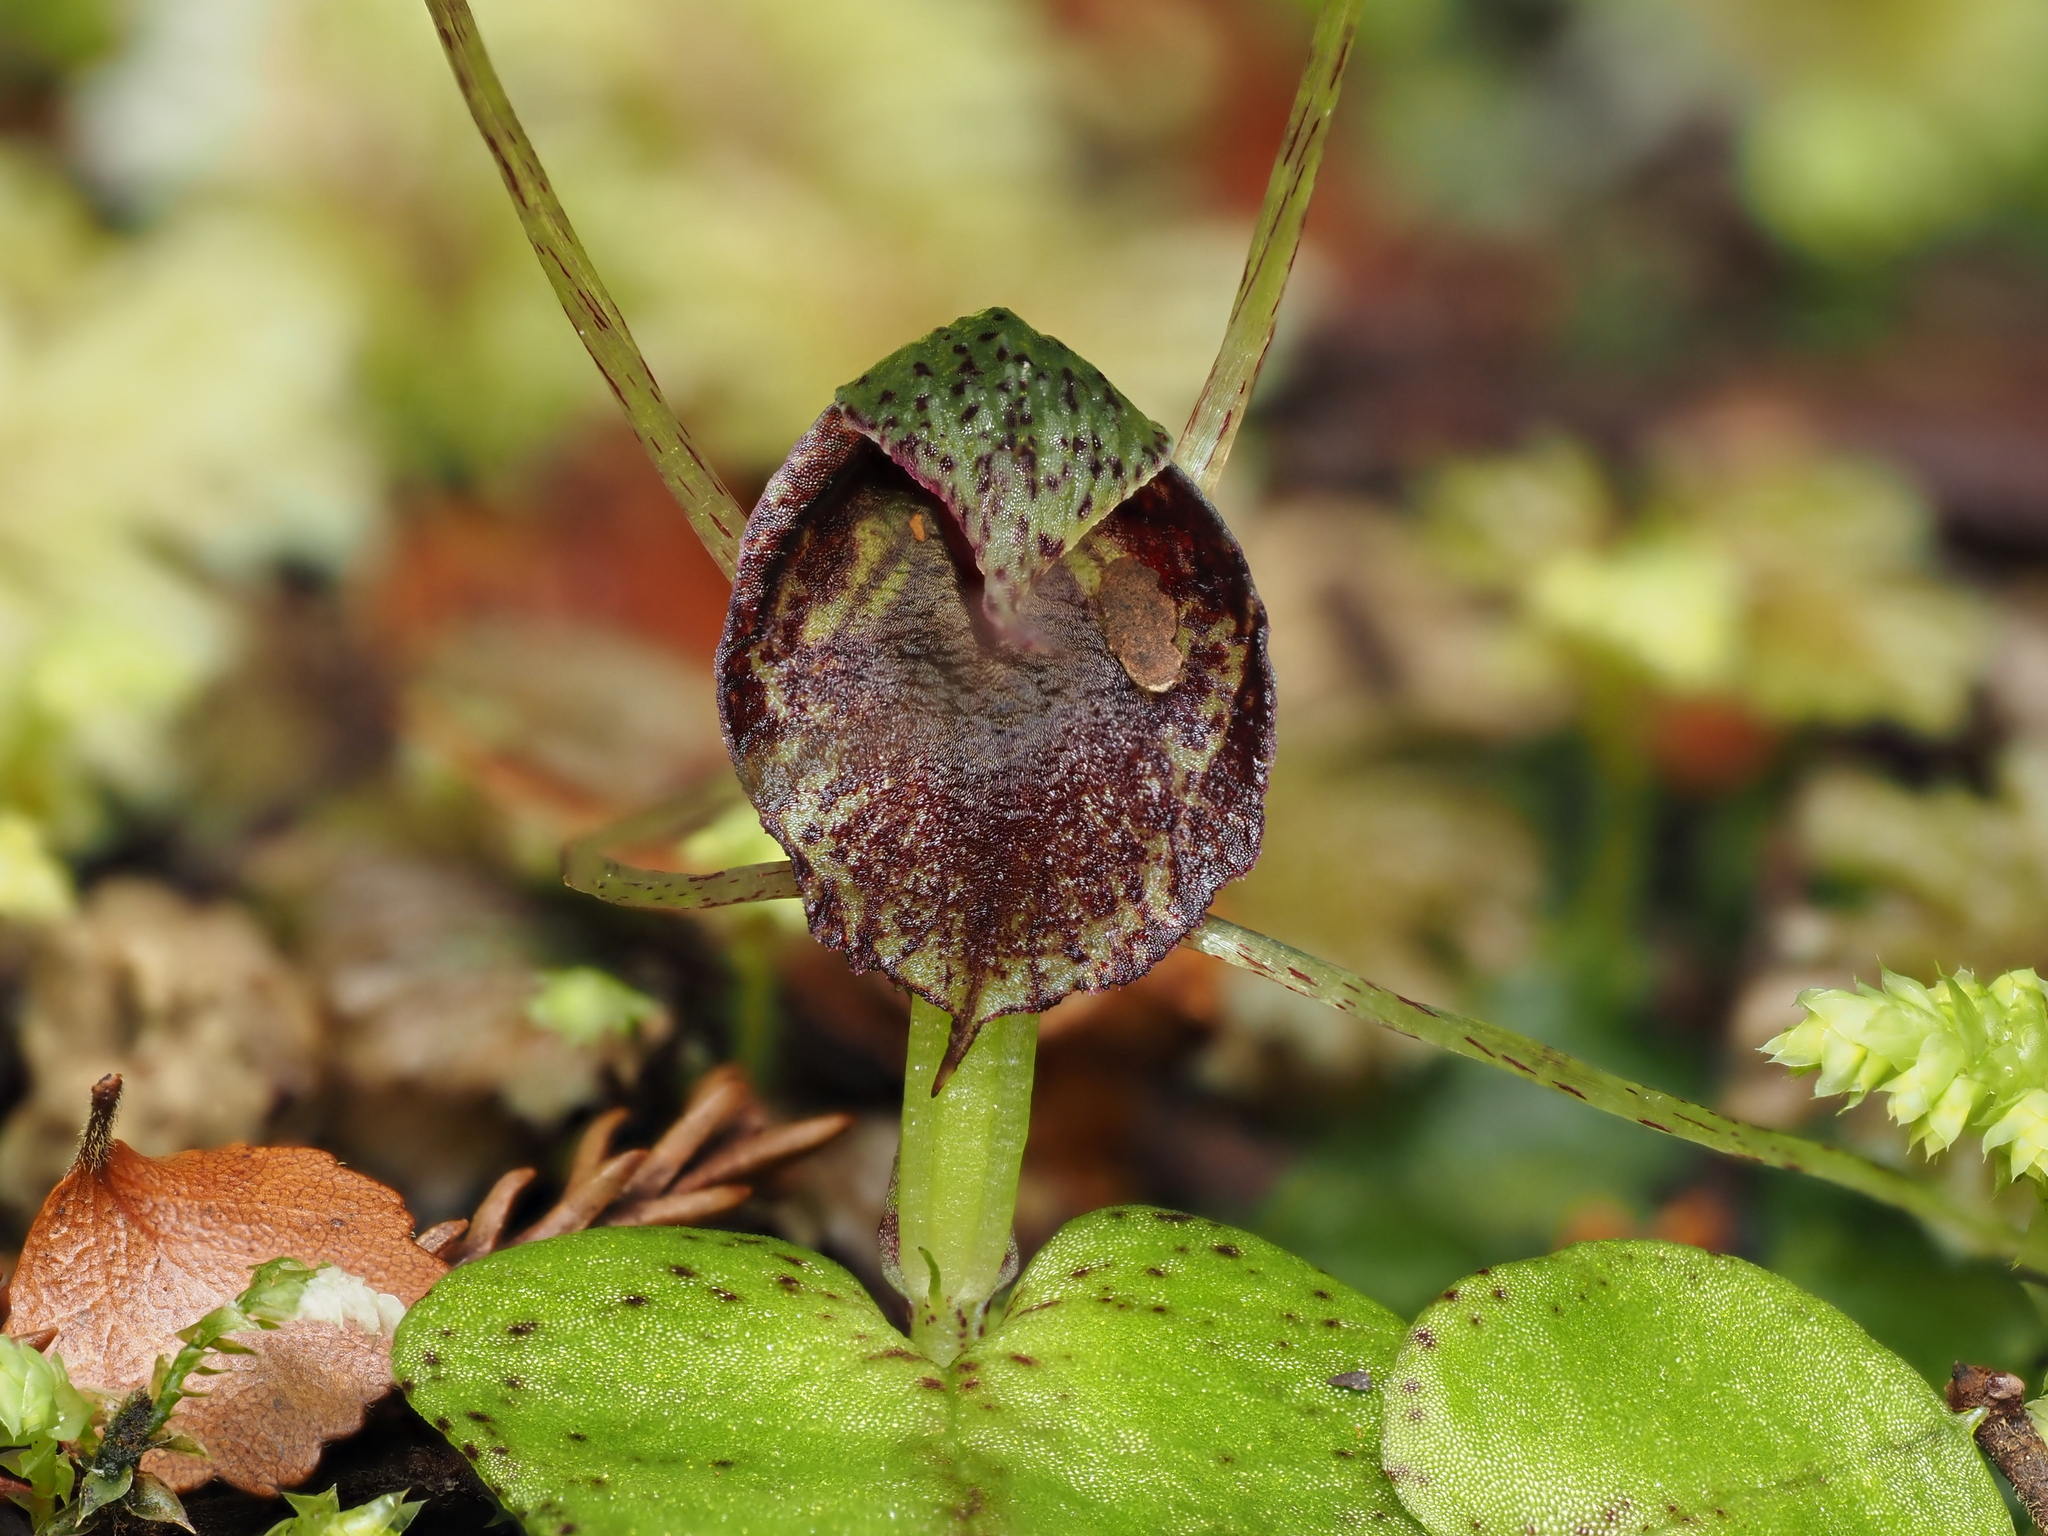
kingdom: Plantae
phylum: Tracheophyta
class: Liliopsida
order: Asparagales
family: Orchidaceae
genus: Corybas
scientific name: Corybas iridescens
